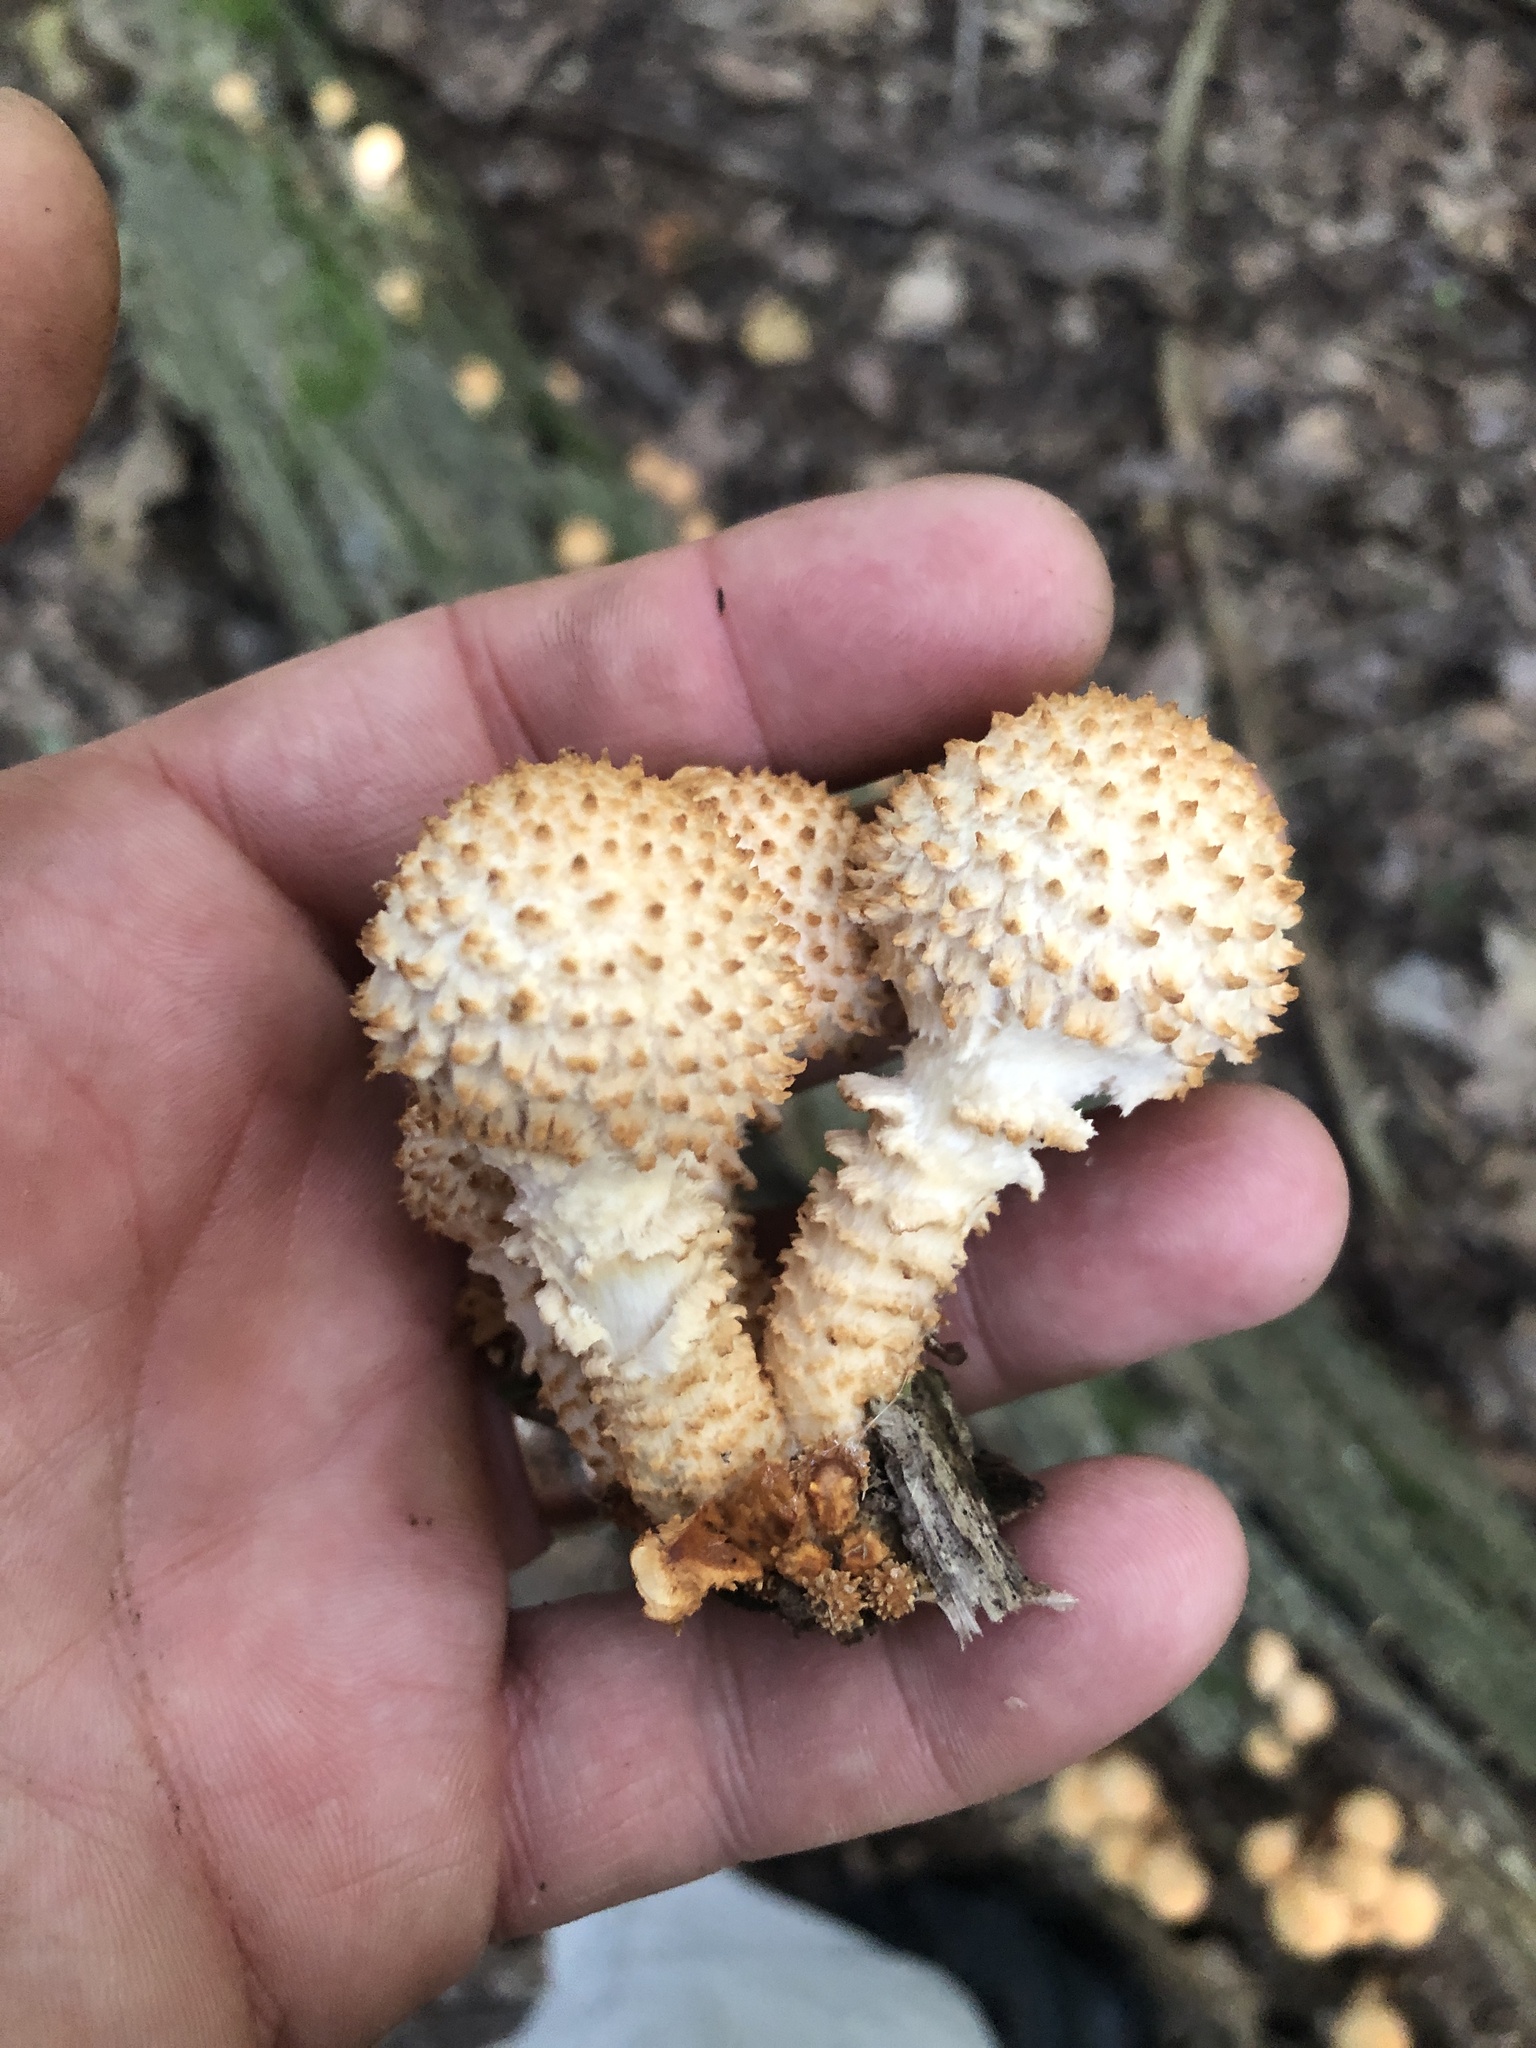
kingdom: Fungi
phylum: Basidiomycota
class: Agaricomycetes
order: Agaricales
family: Strophariaceae
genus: Pholiota
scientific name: Pholiota squarrosoides
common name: Sharp-scaly pholiota
